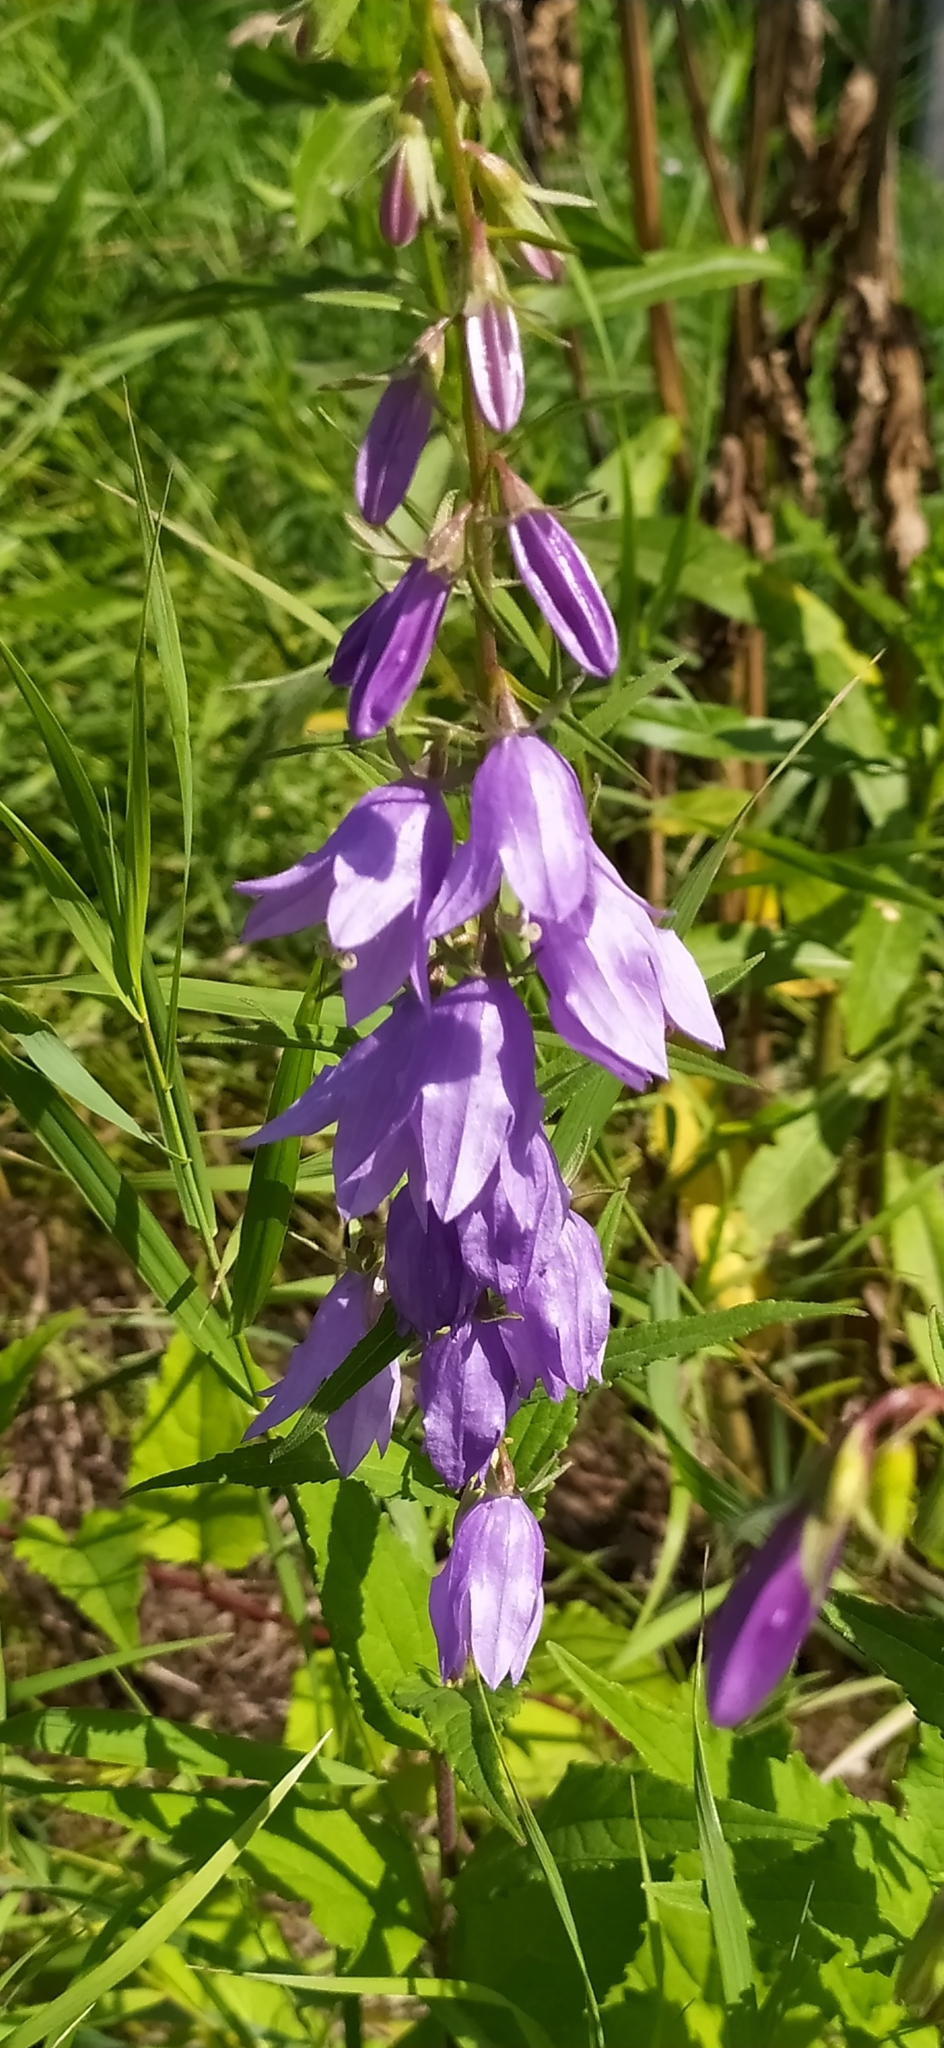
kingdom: Plantae
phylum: Tracheophyta
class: Magnoliopsida
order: Asterales
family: Campanulaceae
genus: Campanula
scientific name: Campanula rapunculoides
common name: Creeping bellflower
